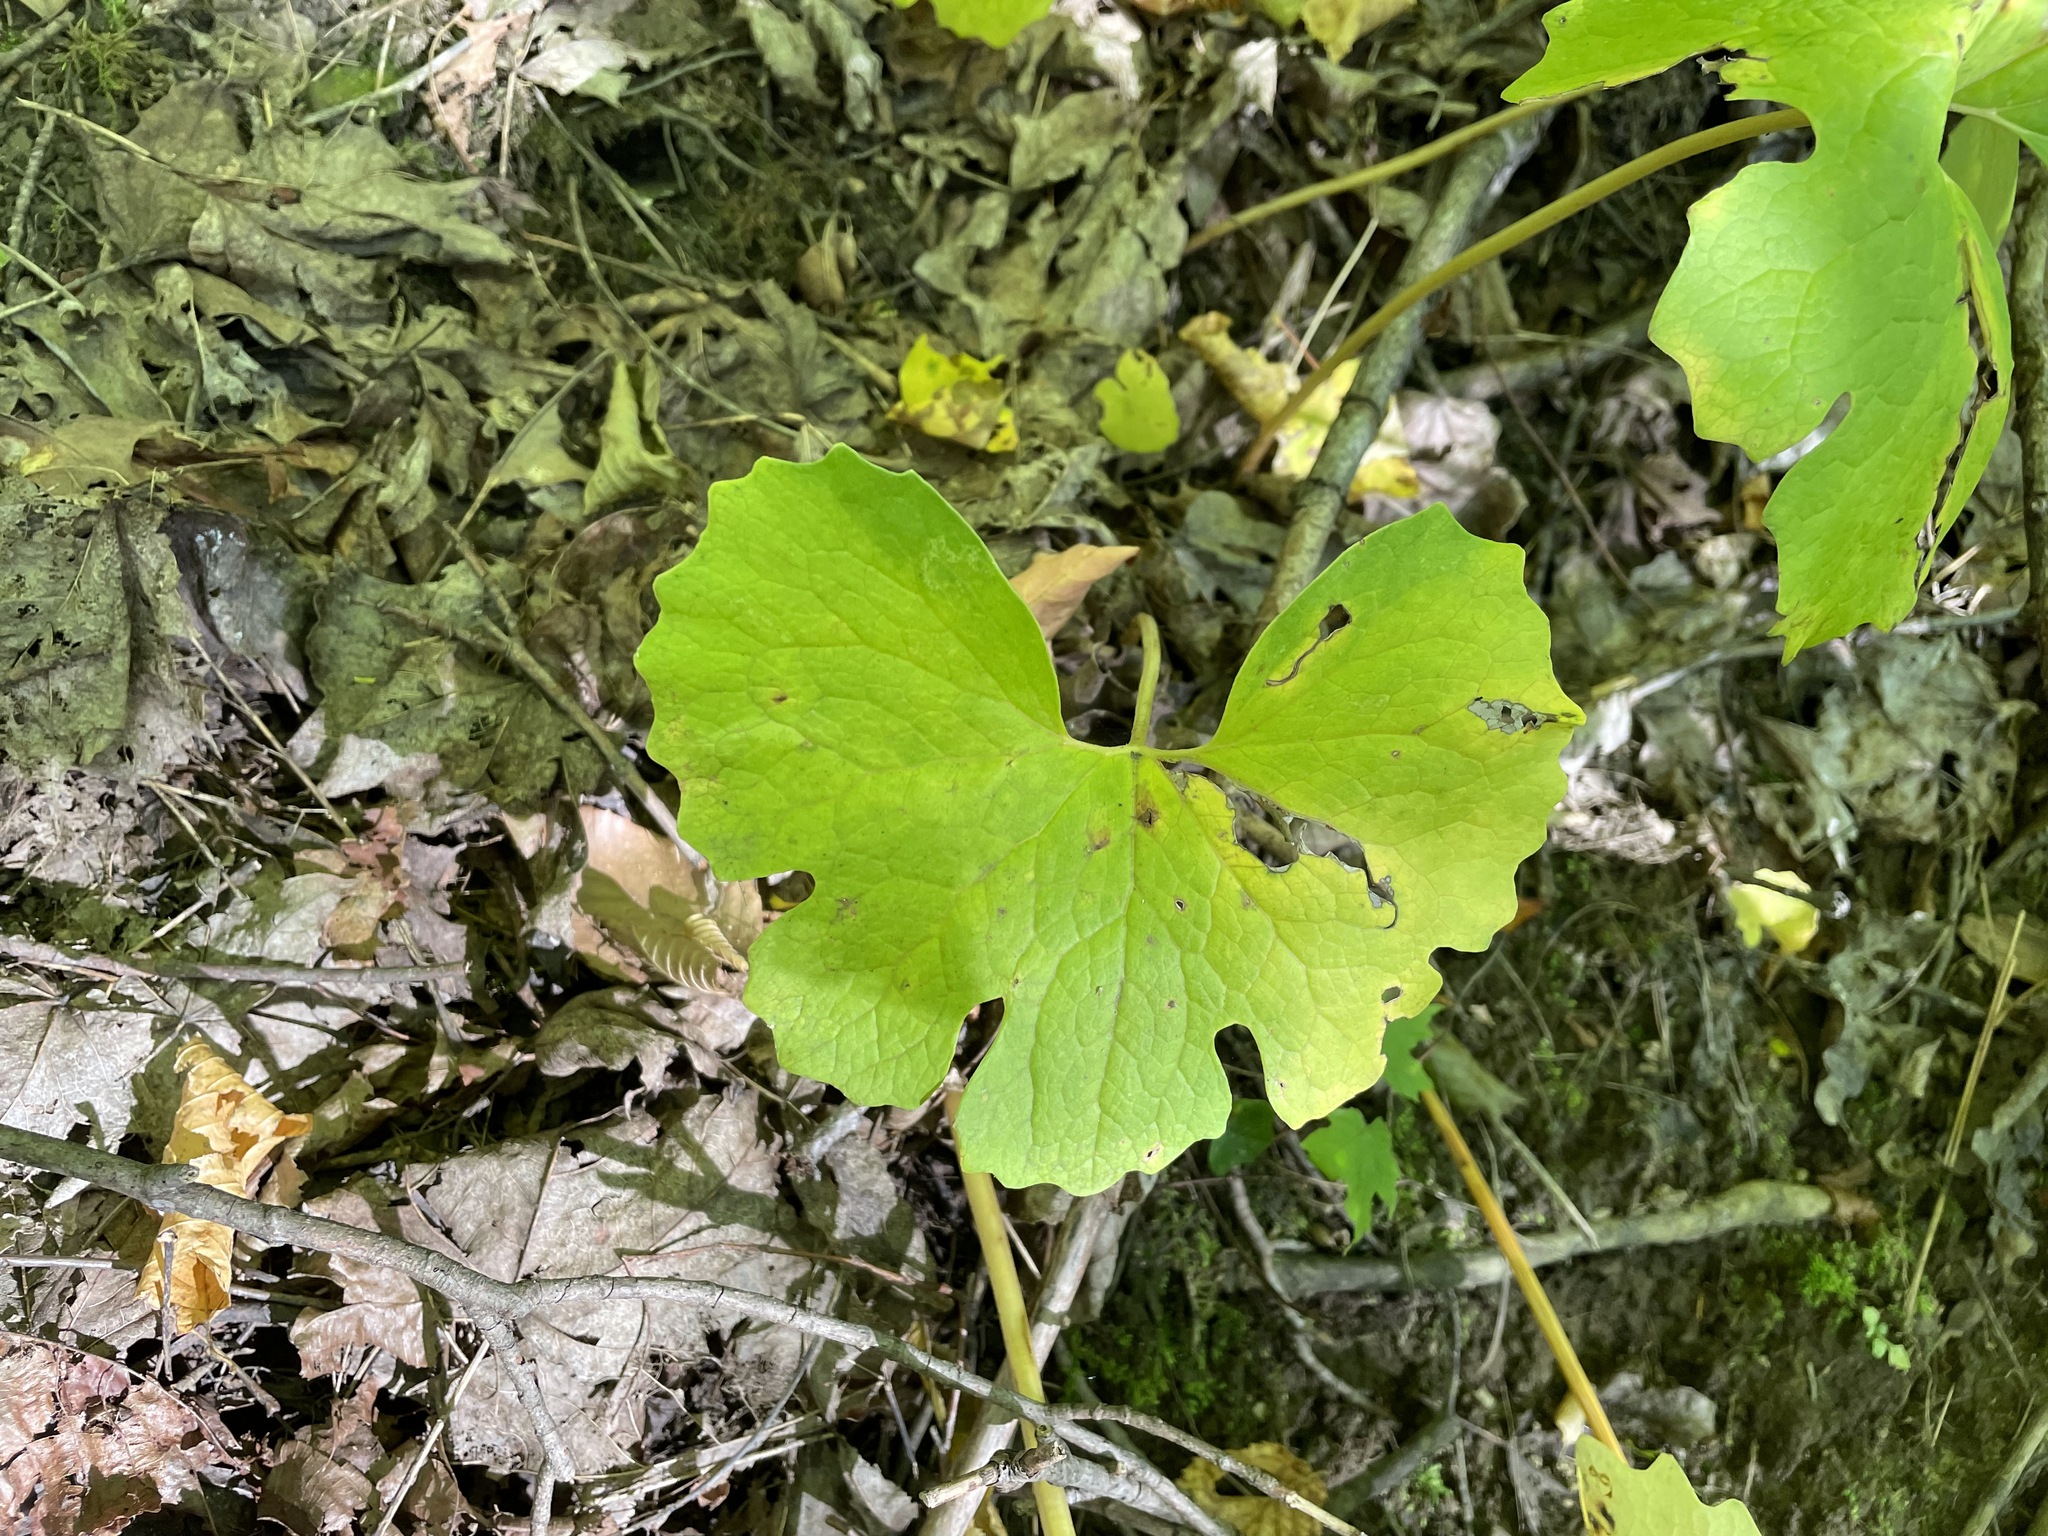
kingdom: Plantae
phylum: Tracheophyta
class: Magnoliopsida
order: Ranunculales
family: Papaveraceae
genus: Sanguinaria
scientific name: Sanguinaria canadensis
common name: Bloodroot
